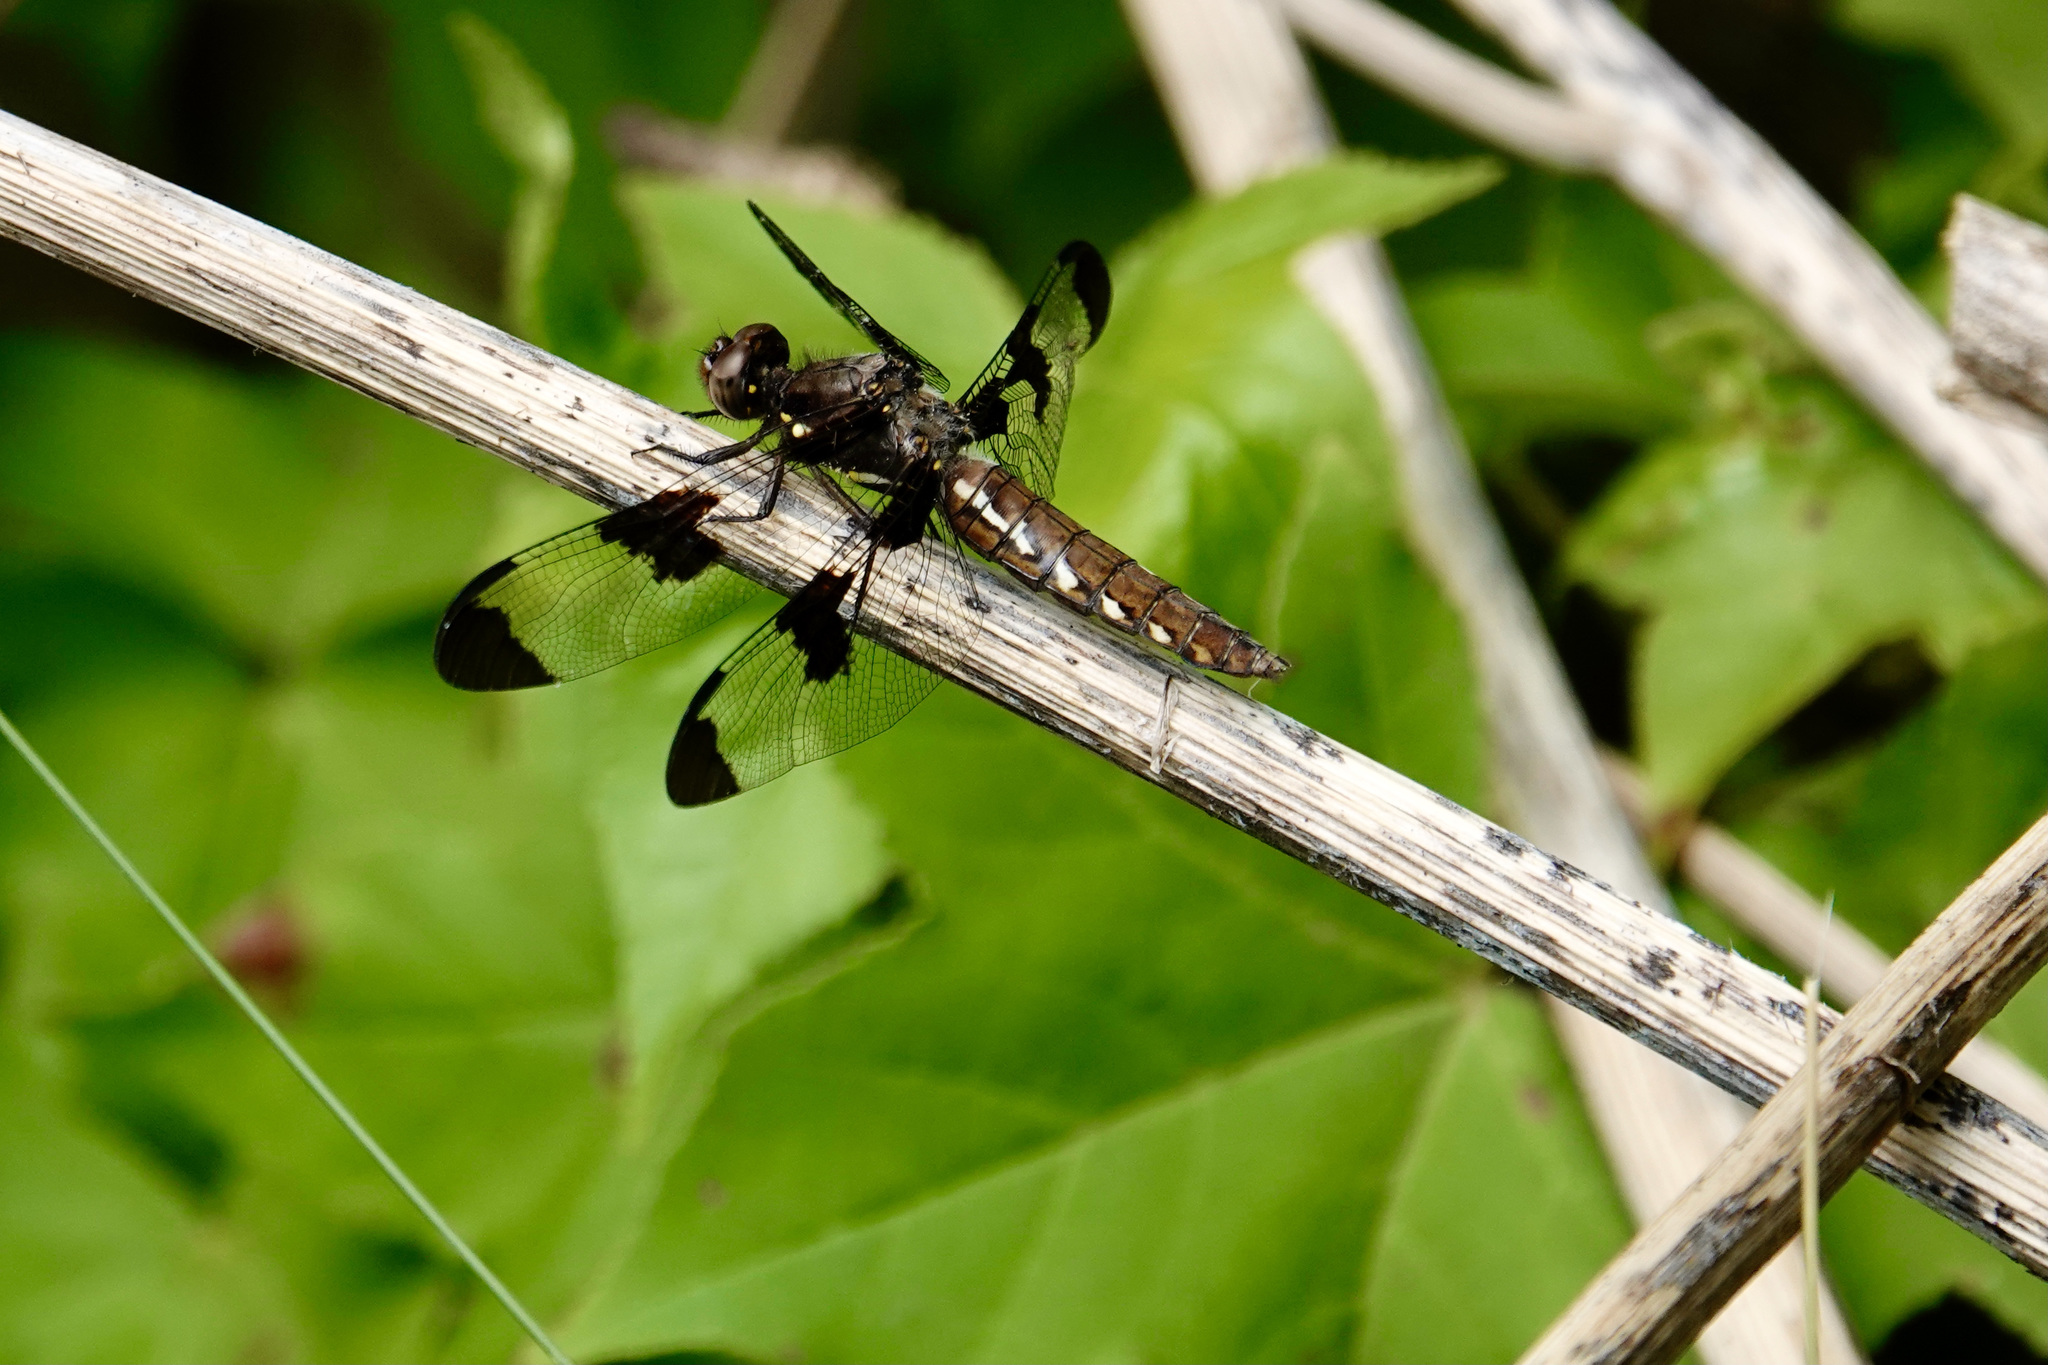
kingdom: Animalia
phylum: Arthropoda
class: Insecta
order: Odonata
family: Libellulidae
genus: Plathemis
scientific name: Plathemis lydia
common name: Common whitetail
